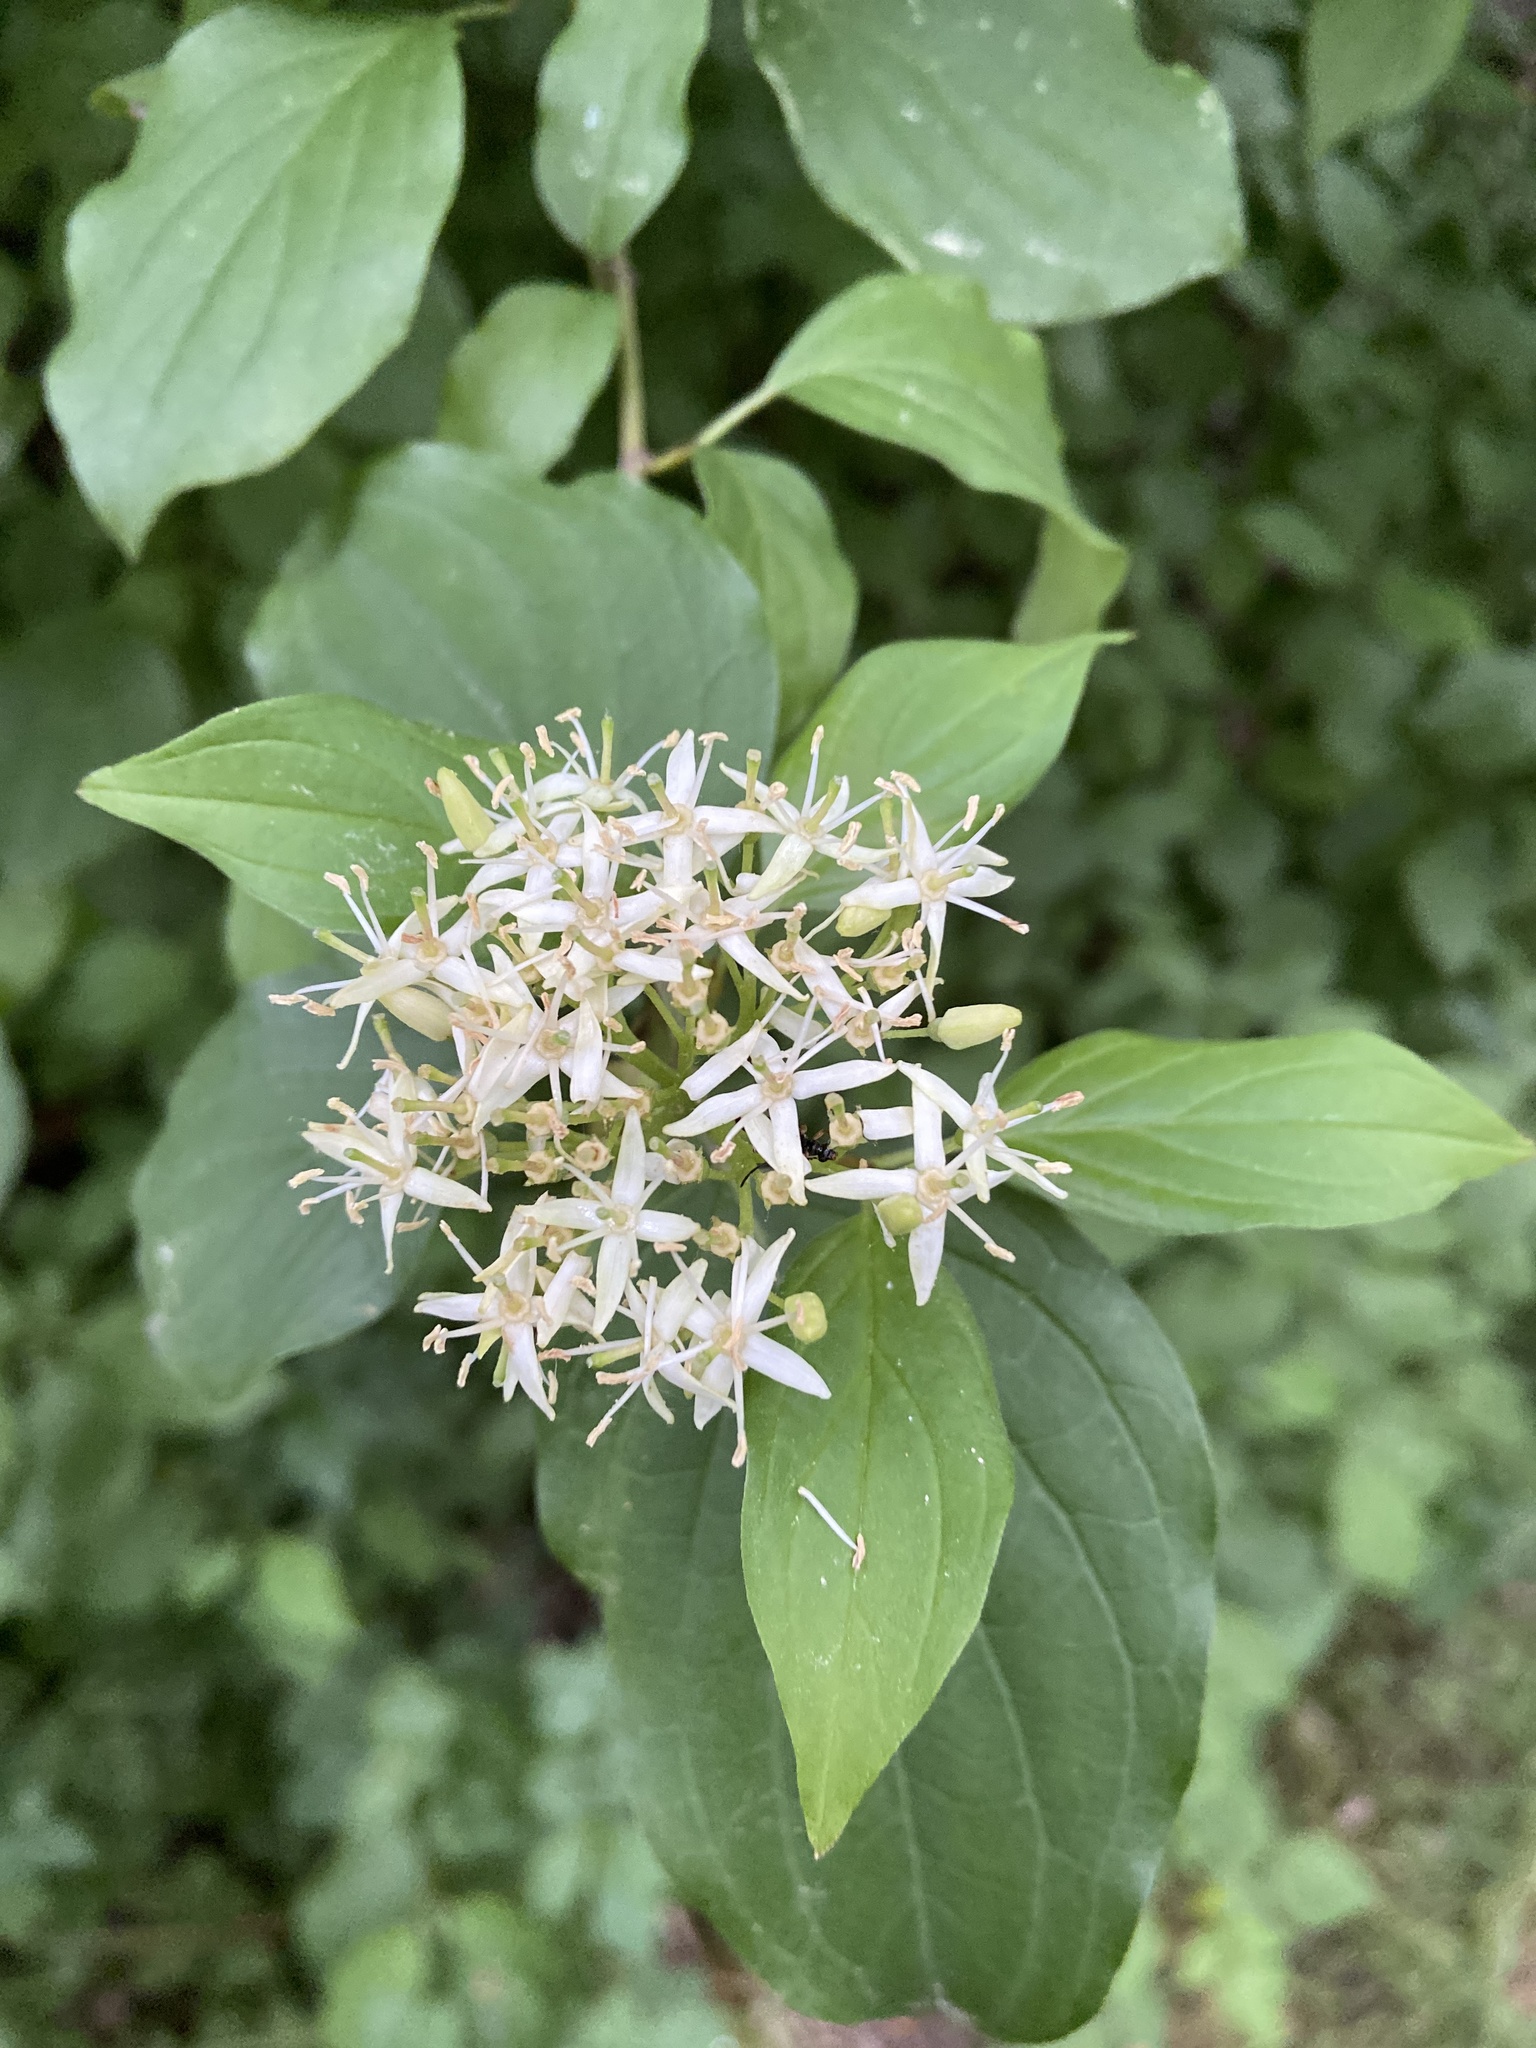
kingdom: Plantae
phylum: Tracheophyta
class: Magnoliopsida
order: Cornales
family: Cornaceae
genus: Cornus
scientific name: Cornus sanguinea
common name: Dogwood
